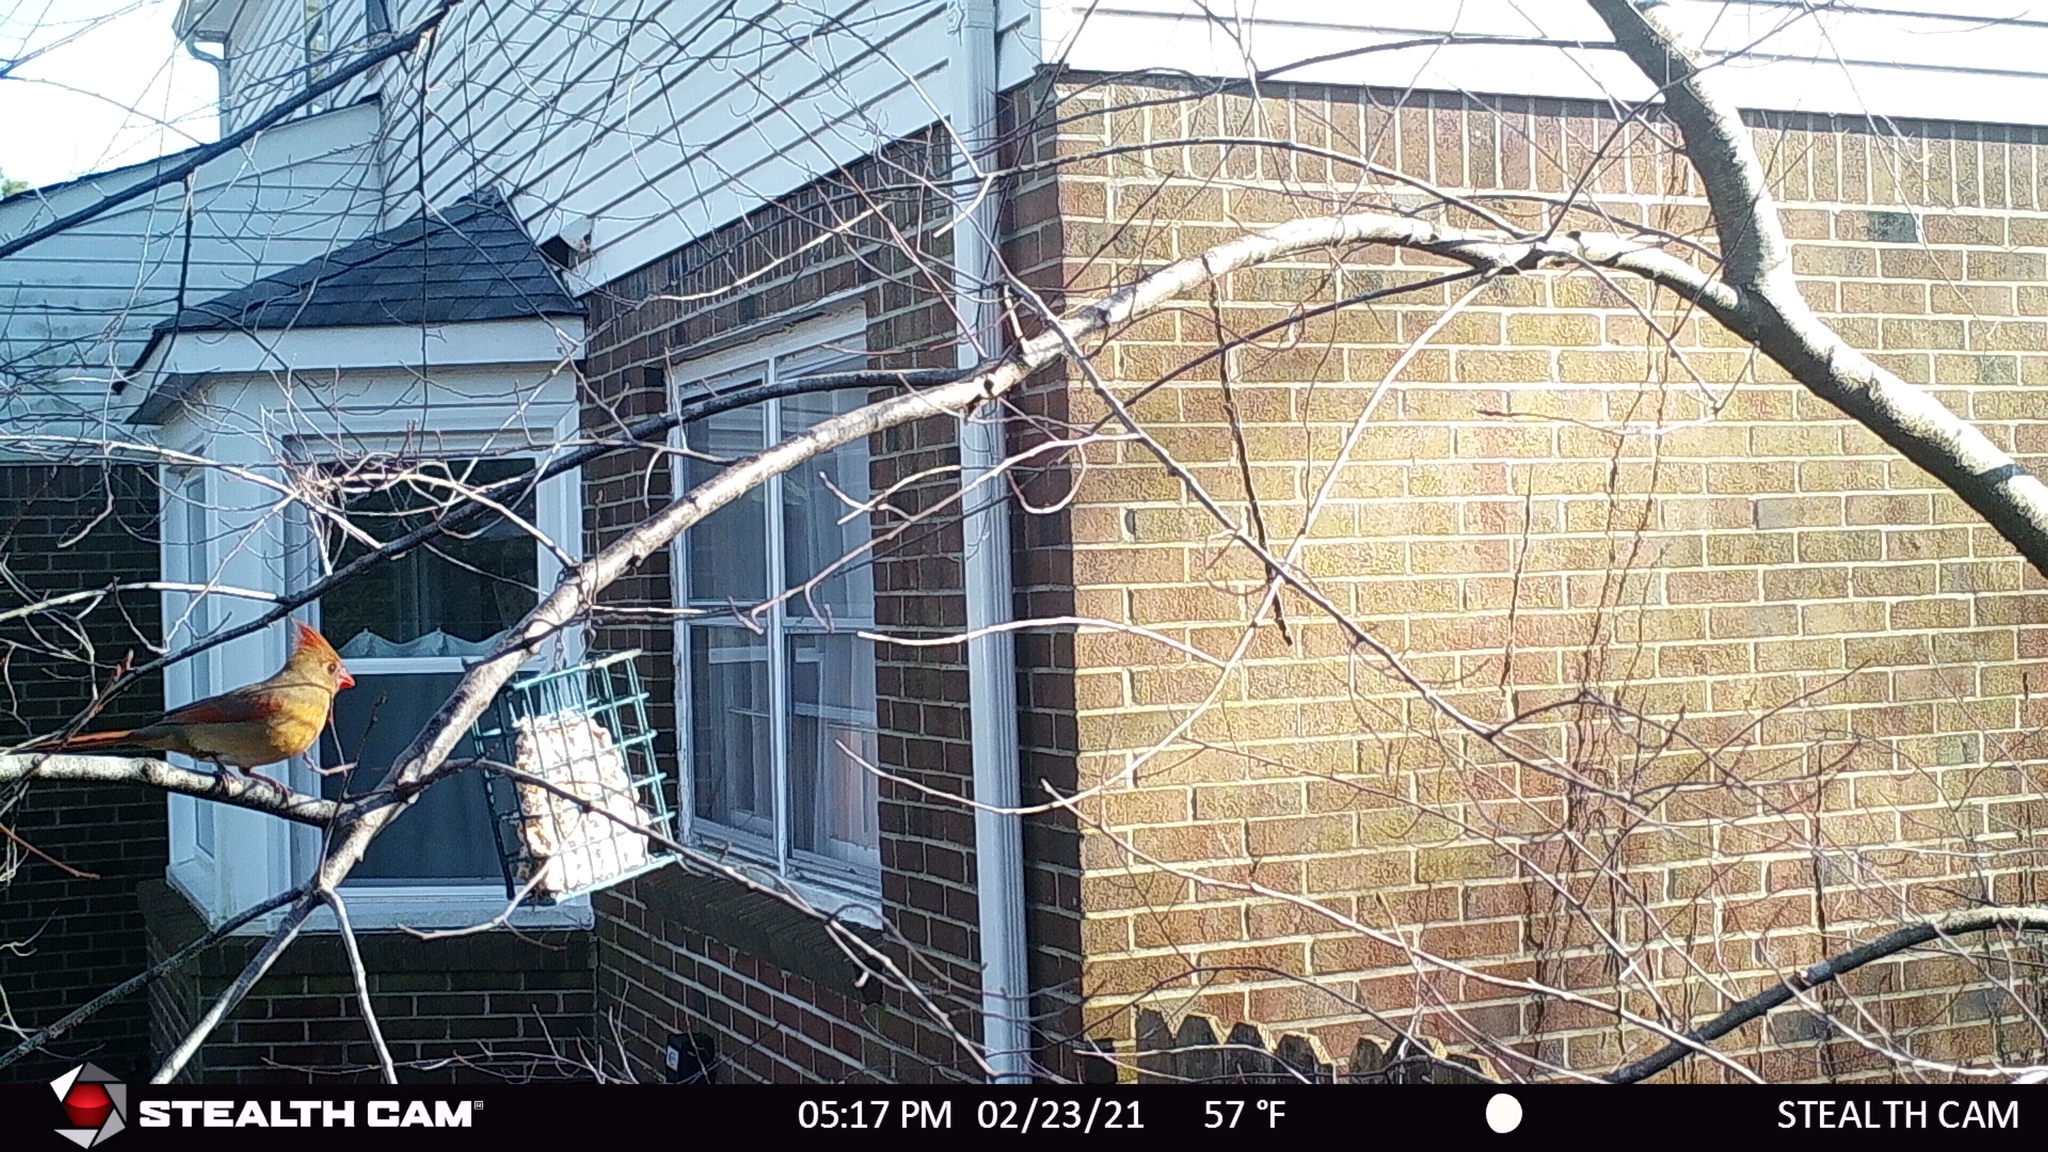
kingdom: Animalia
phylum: Chordata
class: Aves
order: Passeriformes
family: Cardinalidae
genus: Cardinalis
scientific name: Cardinalis cardinalis
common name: Northern cardinal
